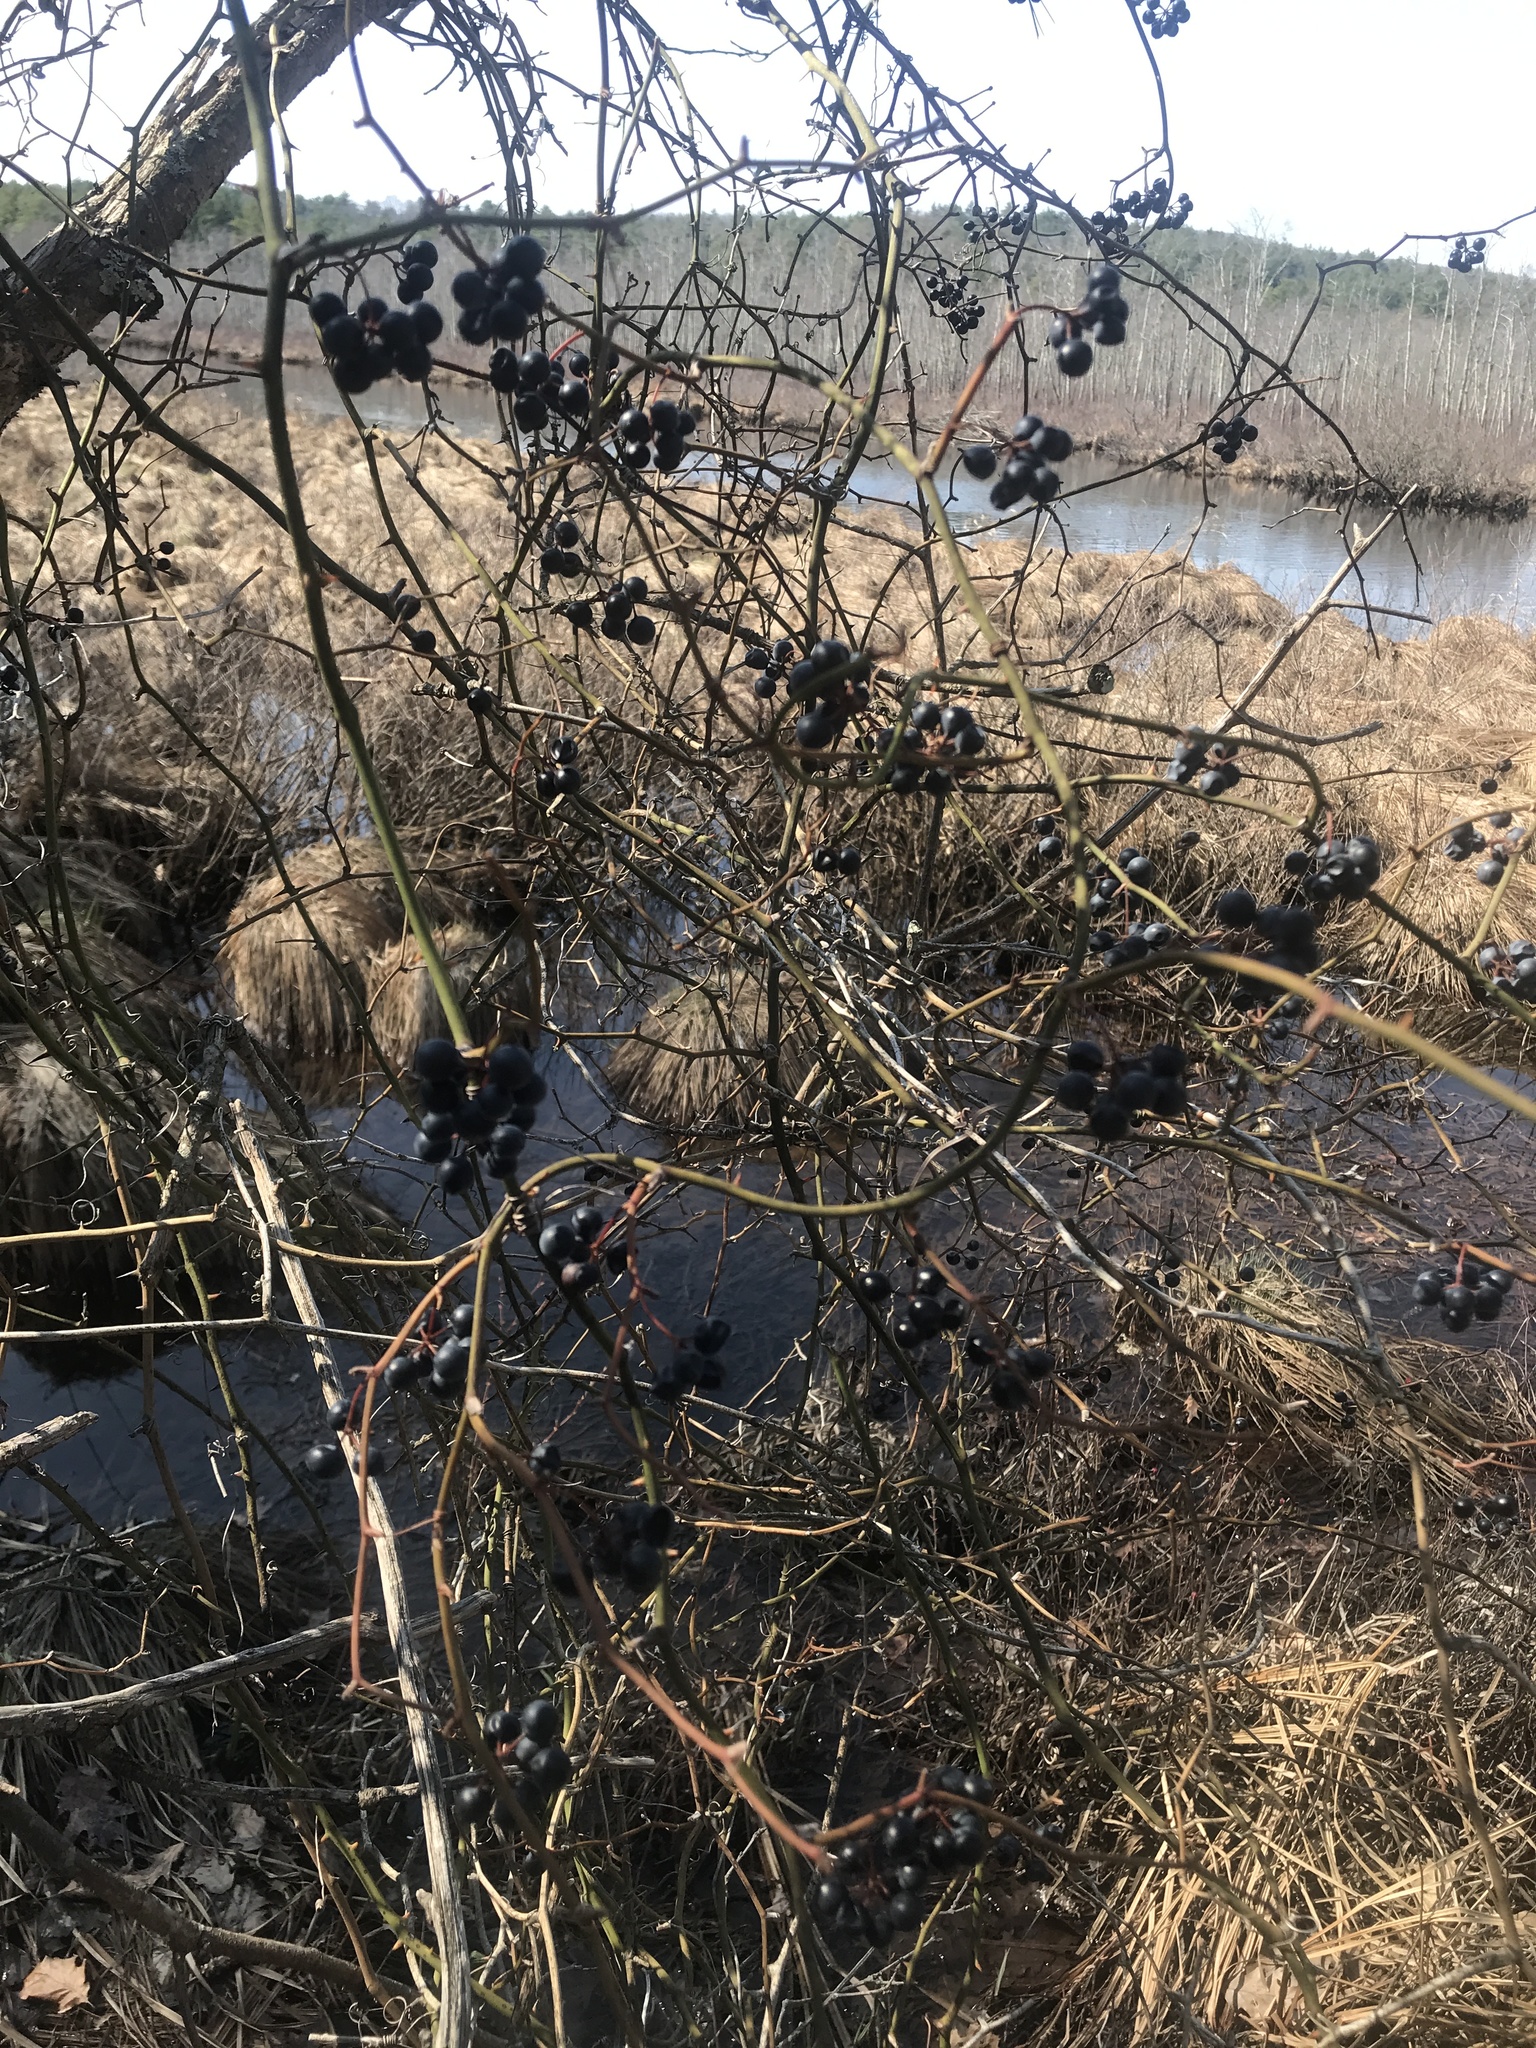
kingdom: Plantae
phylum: Tracheophyta
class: Liliopsida
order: Liliales
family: Smilacaceae
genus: Smilax
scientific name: Smilax rotundifolia
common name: Bullbriar
